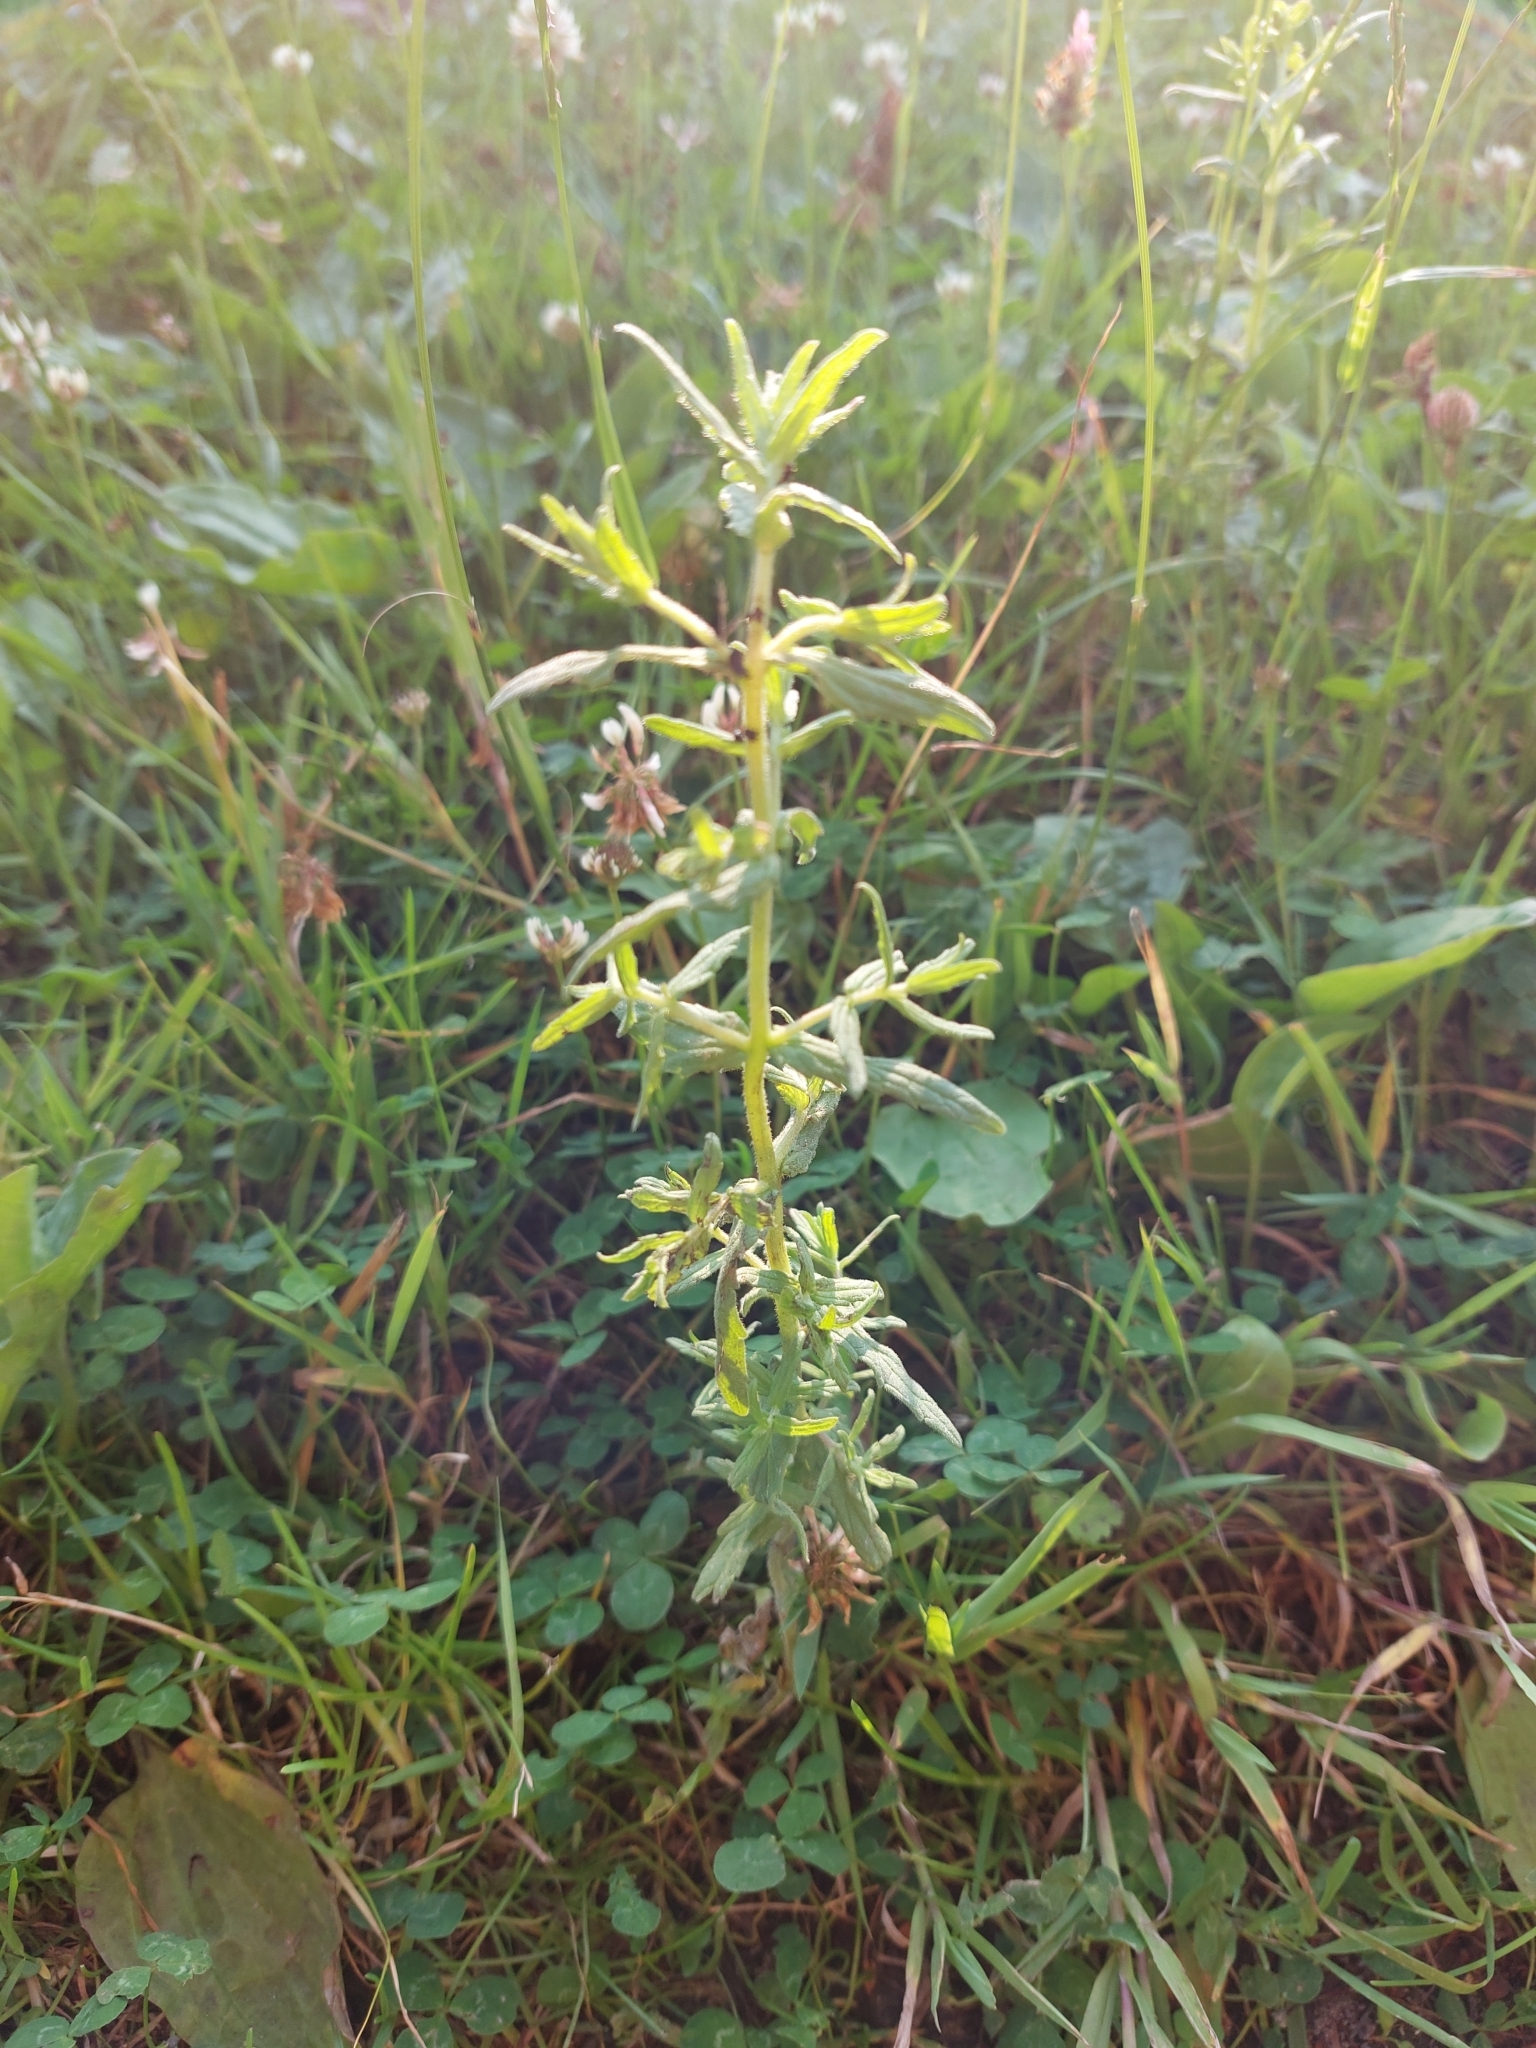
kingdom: Plantae
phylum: Tracheophyta
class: Magnoliopsida
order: Lamiales
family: Orobanchaceae
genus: Odontites
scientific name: Odontites vulgaris
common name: Broomrape
